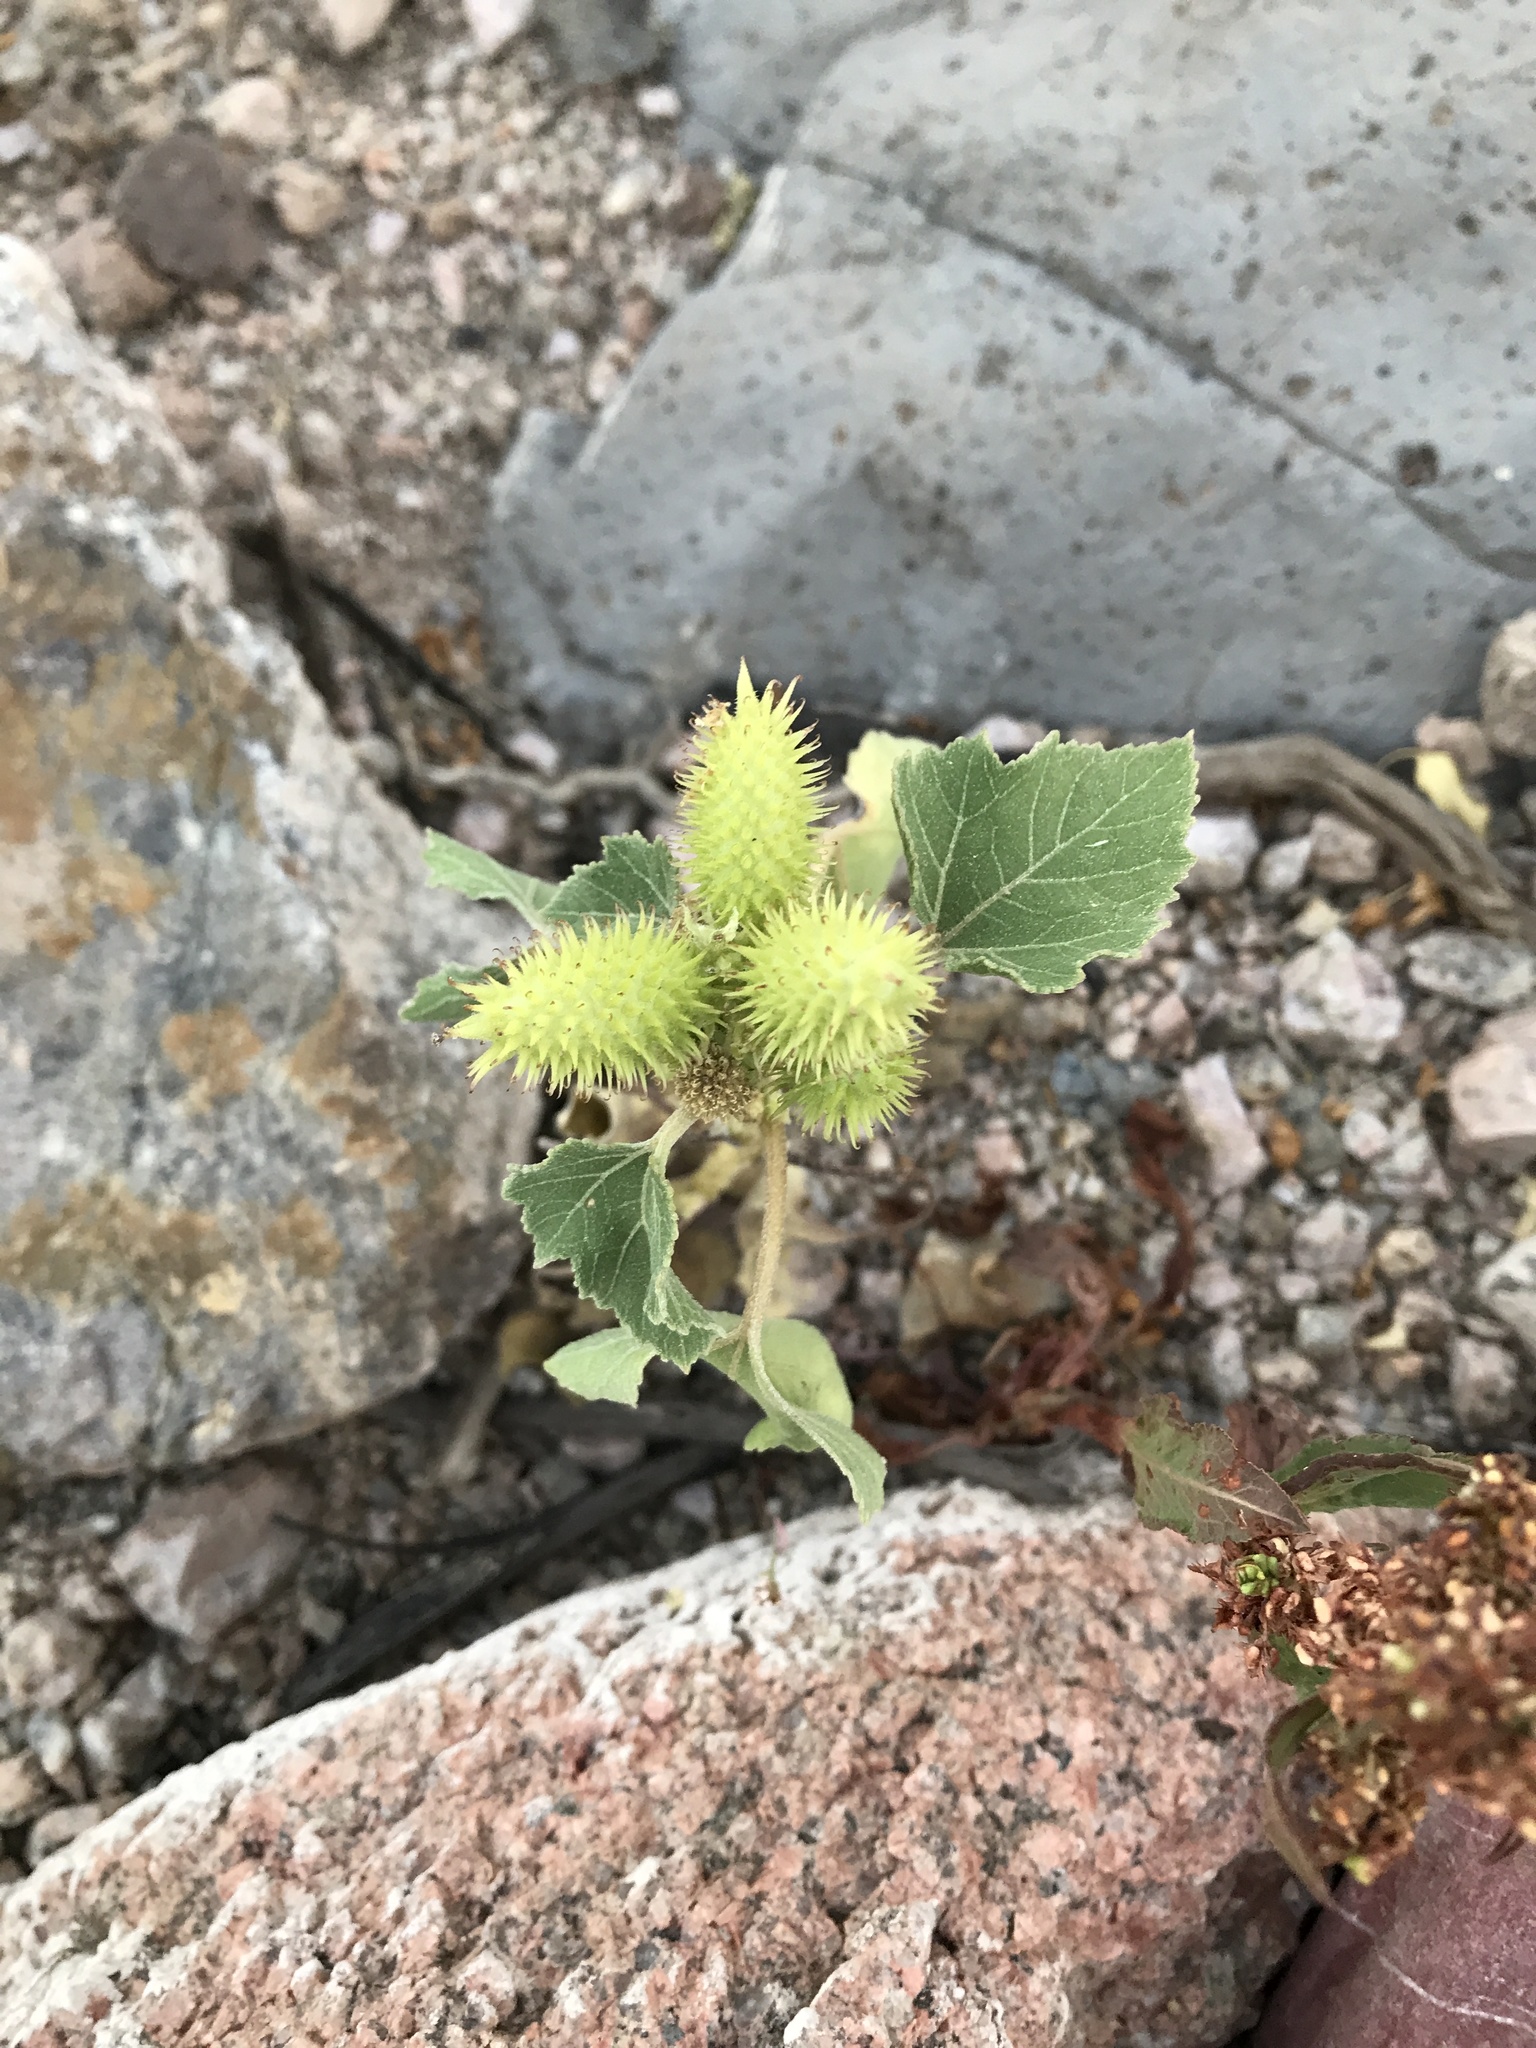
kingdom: Plantae
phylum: Tracheophyta
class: Magnoliopsida
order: Asterales
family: Asteraceae
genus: Xanthium
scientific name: Xanthium strumarium
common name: Rough cocklebur
